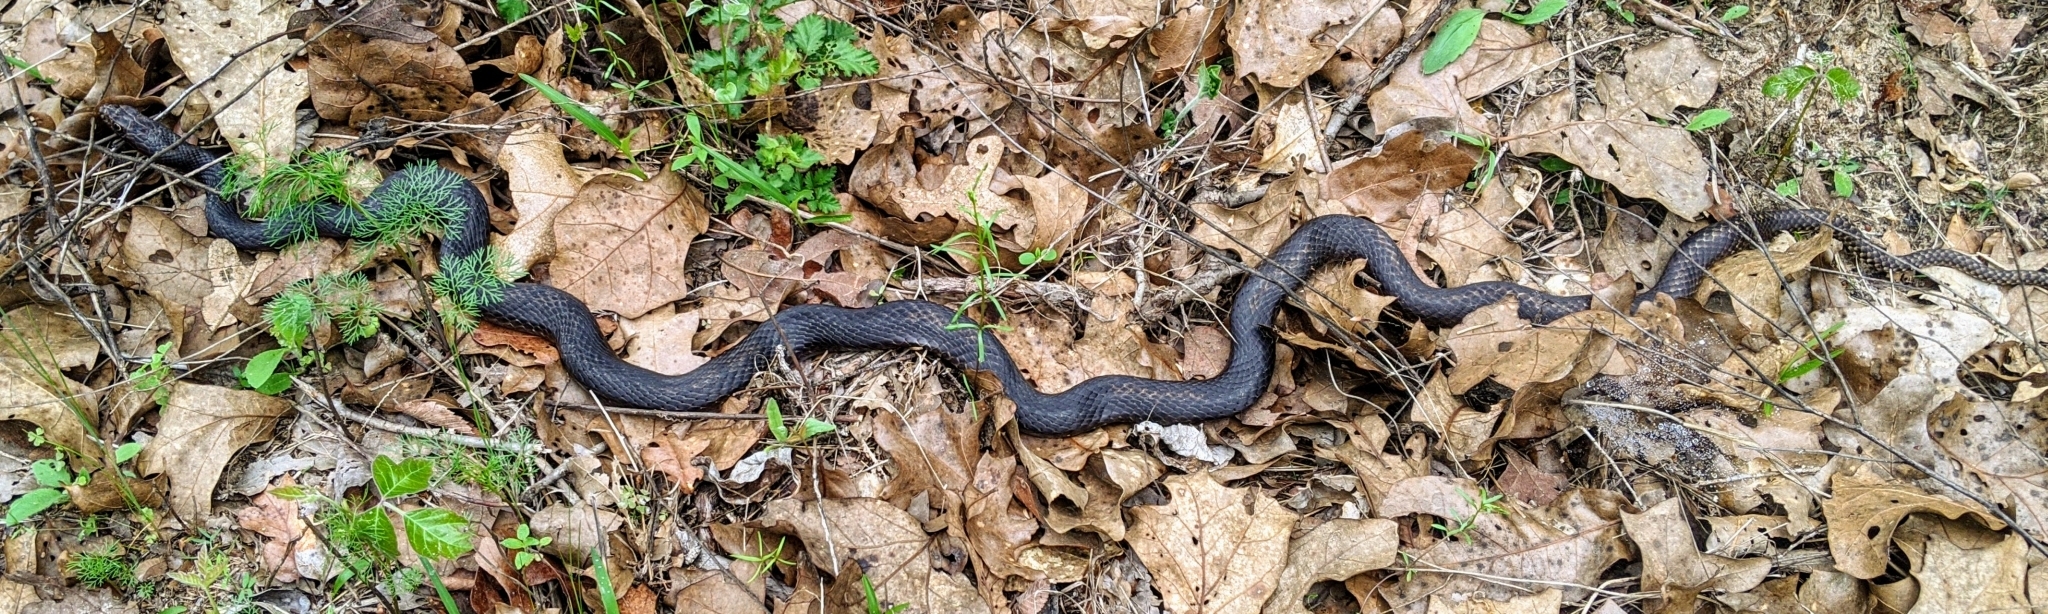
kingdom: Animalia
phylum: Chordata
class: Squamata
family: Colubridae
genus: Masticophis
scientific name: Masticophis flagellum
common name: Coachwhip
